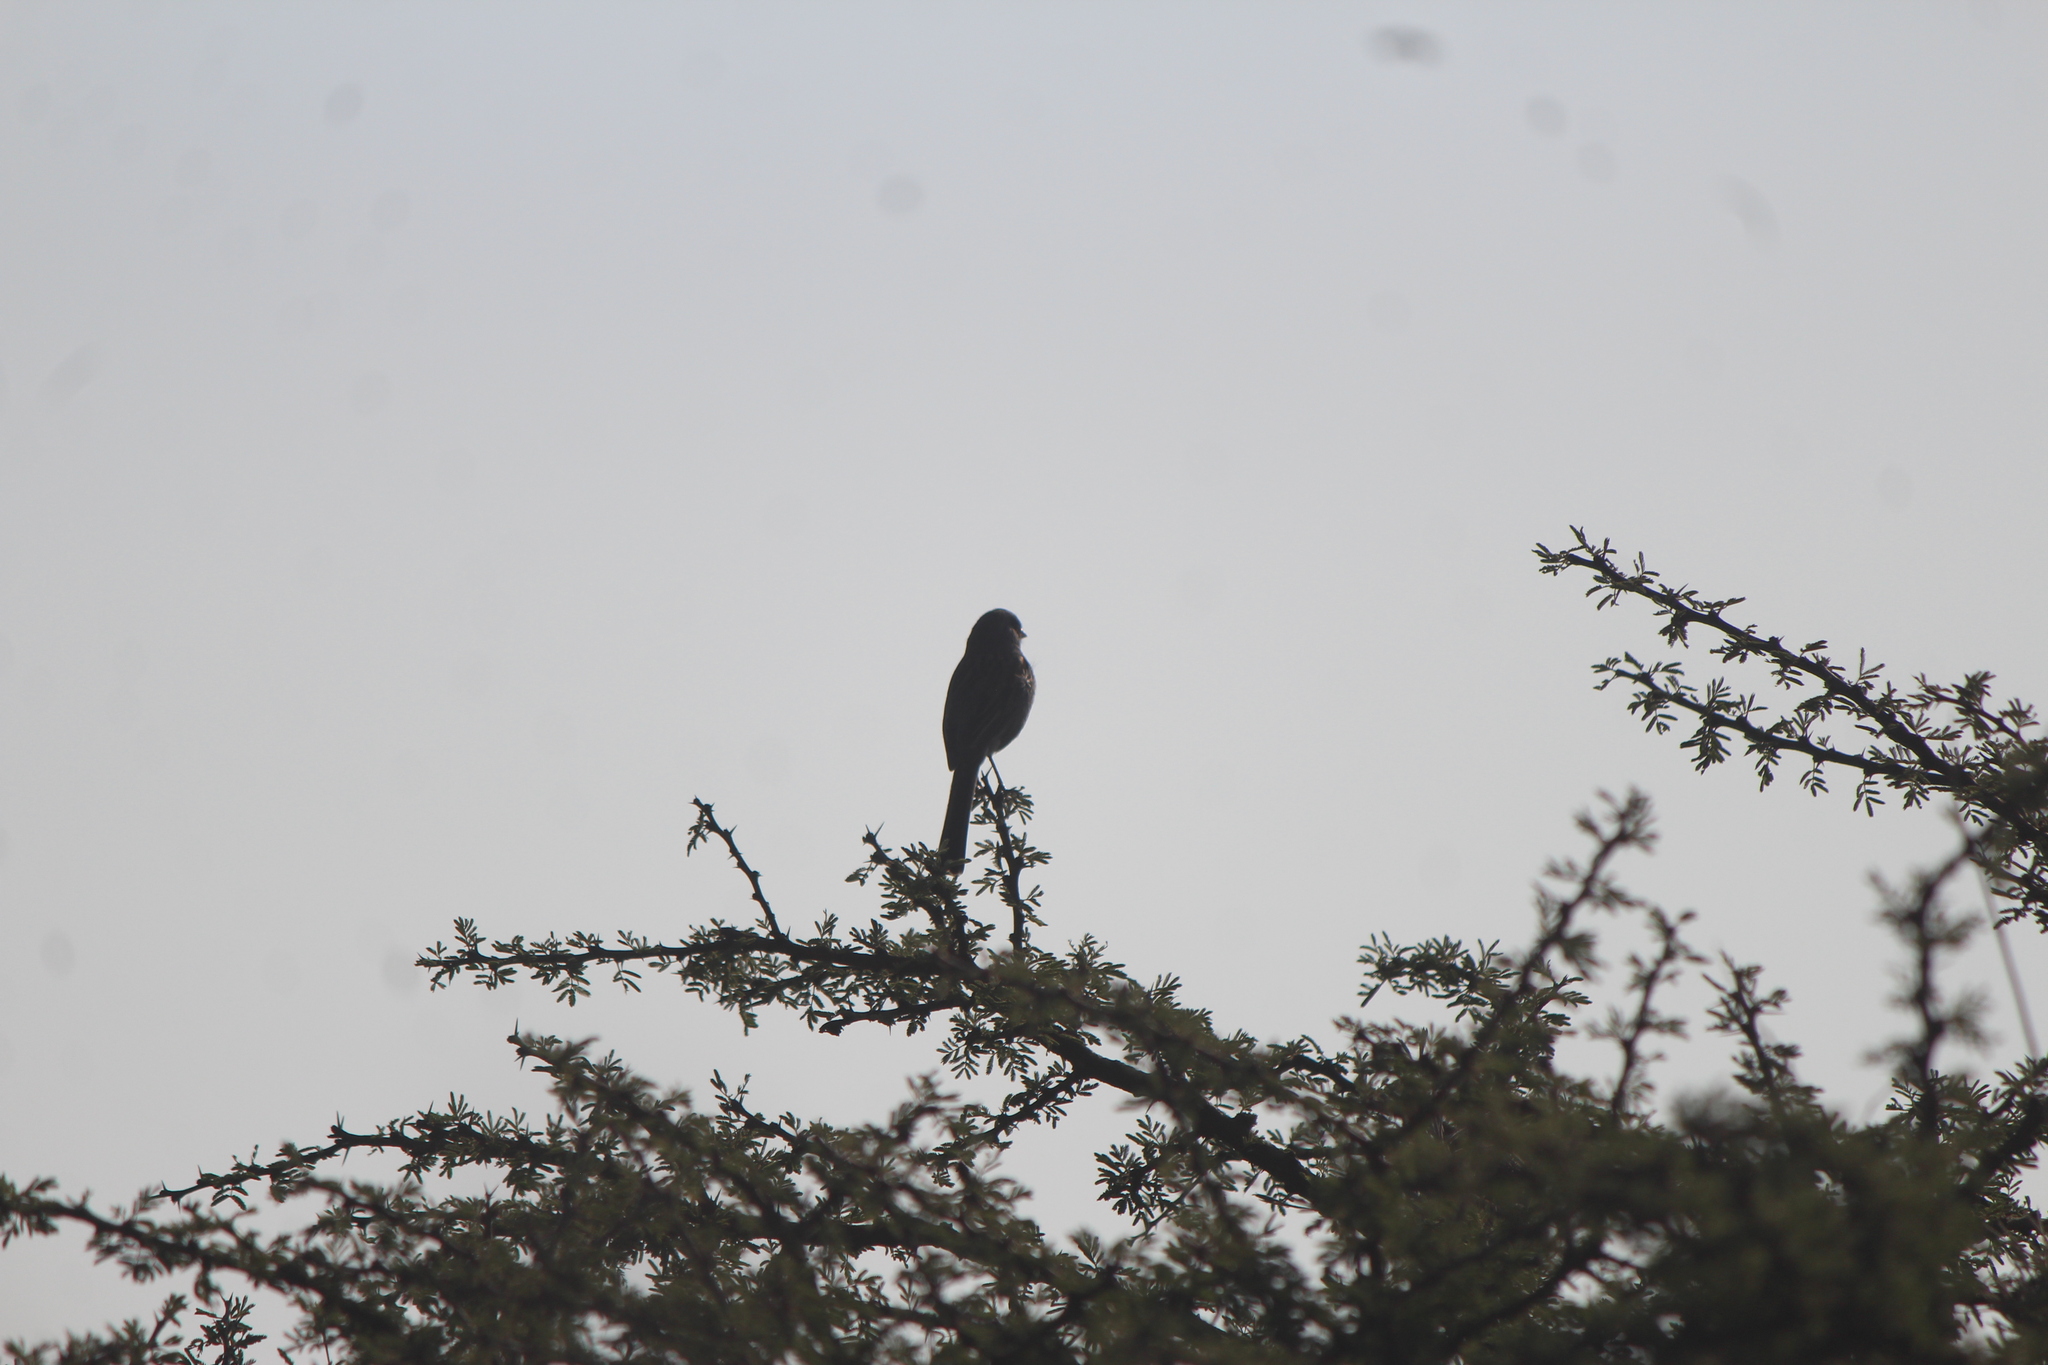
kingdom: Animalia
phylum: Chordata
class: Aves
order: Passeriformes
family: Passerellidae
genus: Spizella
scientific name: Spizella atrogularis
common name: Black-chinned sparrow
